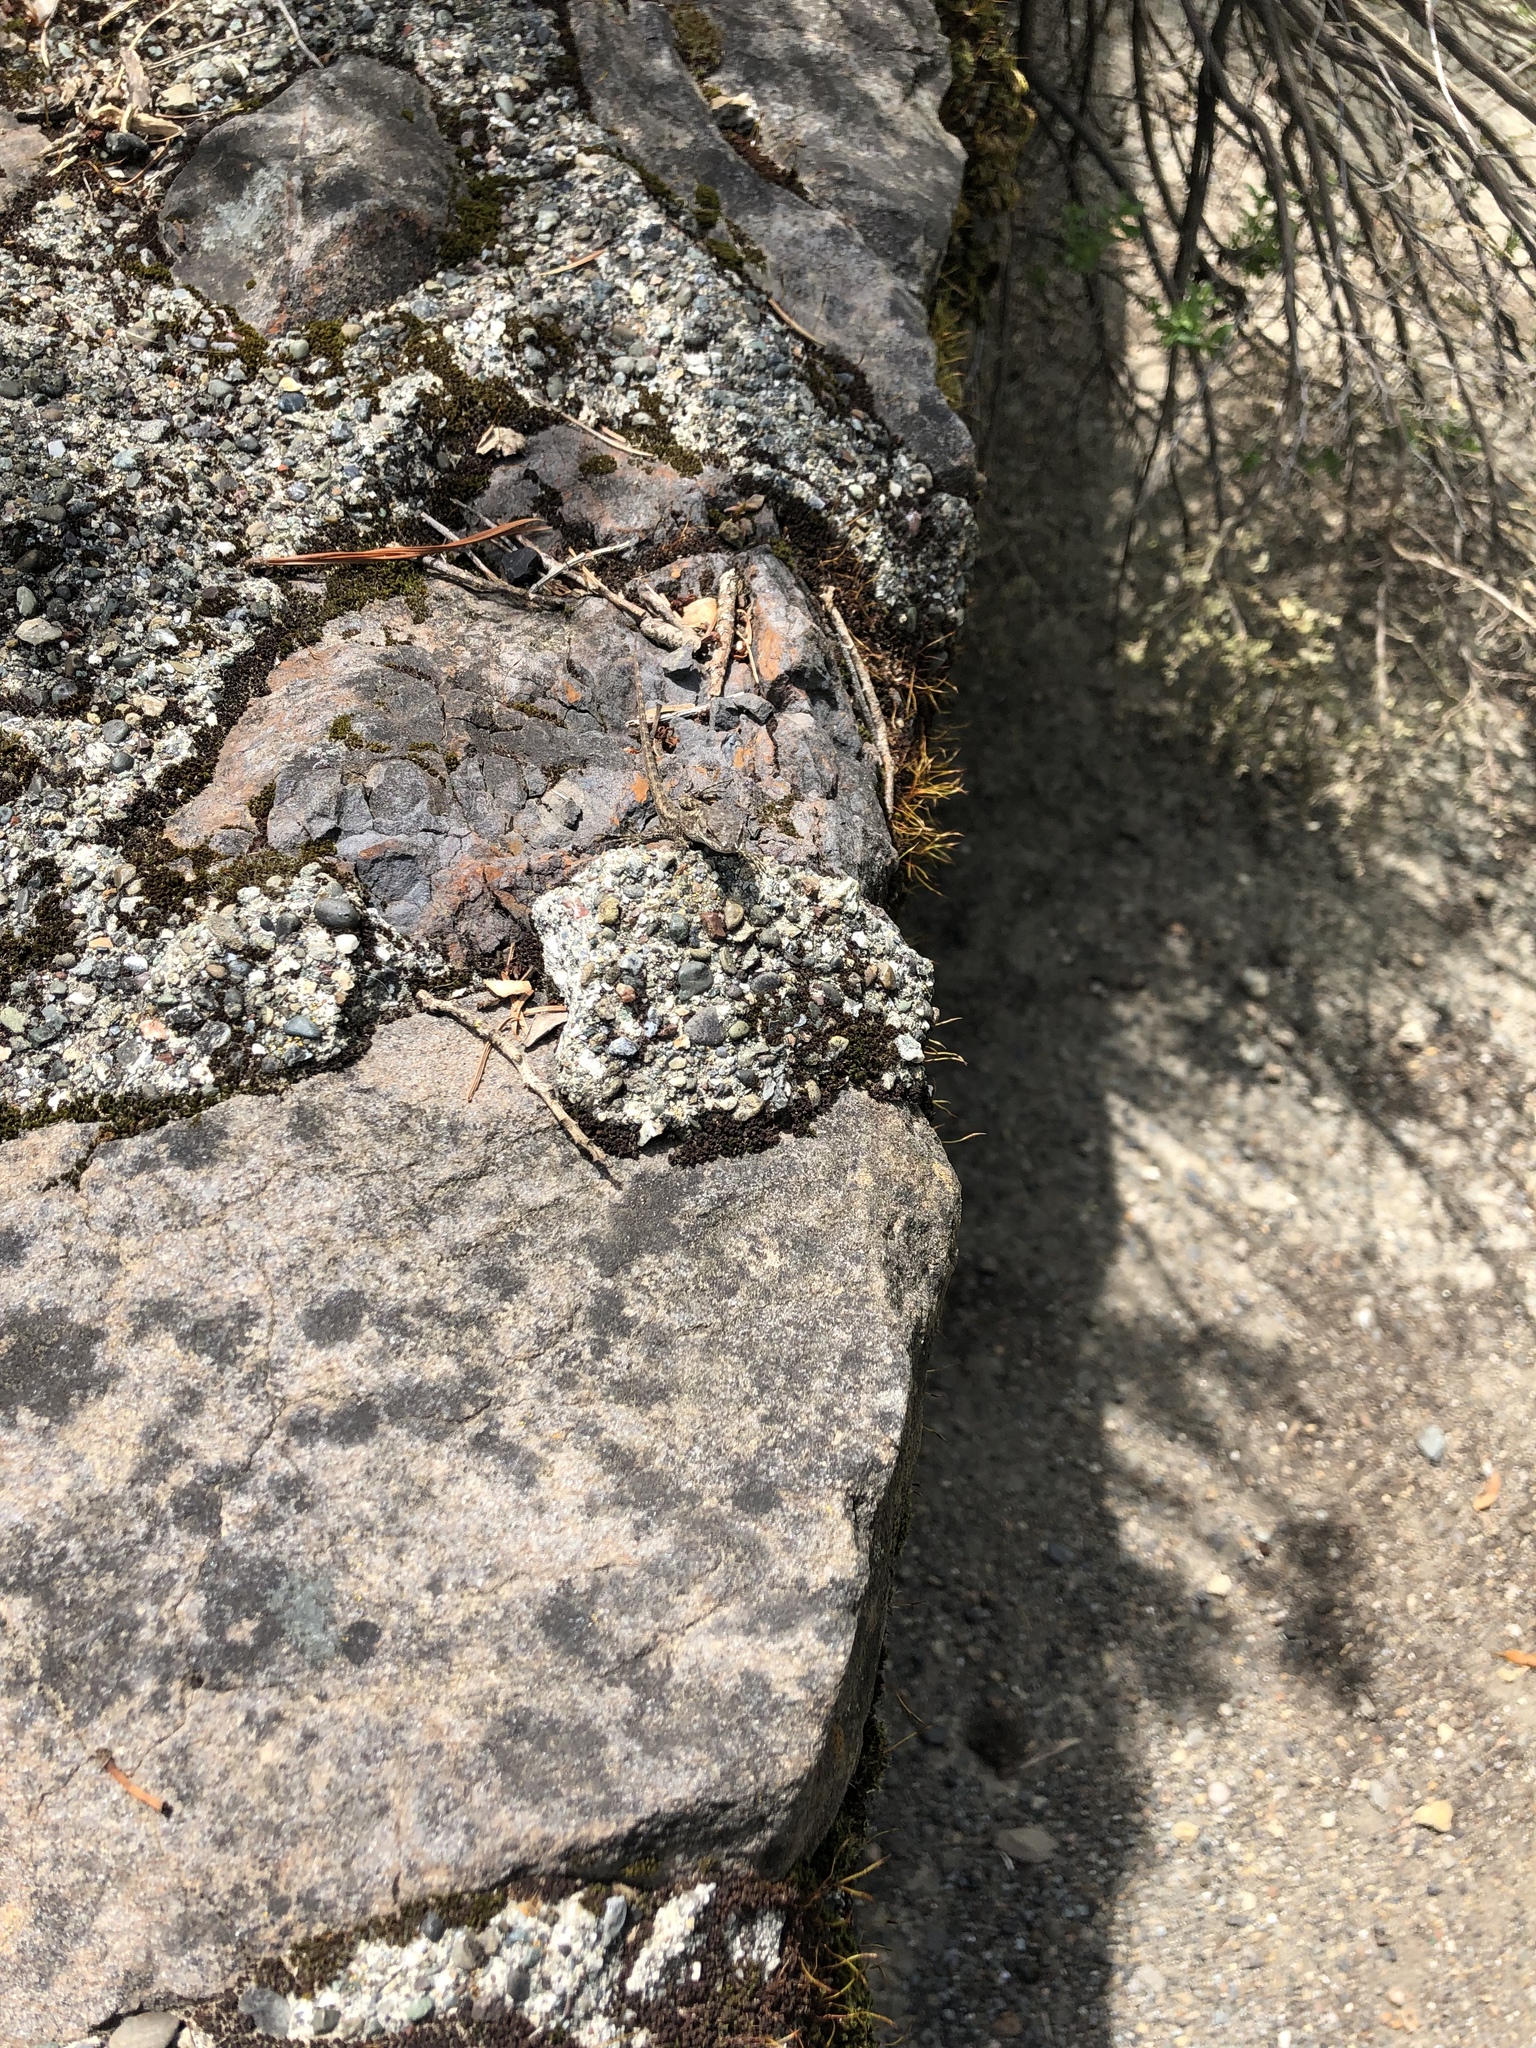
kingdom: Animalia
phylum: Chordata
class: Squamata
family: Phrynosomatidae
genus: Sceloporus
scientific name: Sceloporus occidentalis
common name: Western fence lizard
